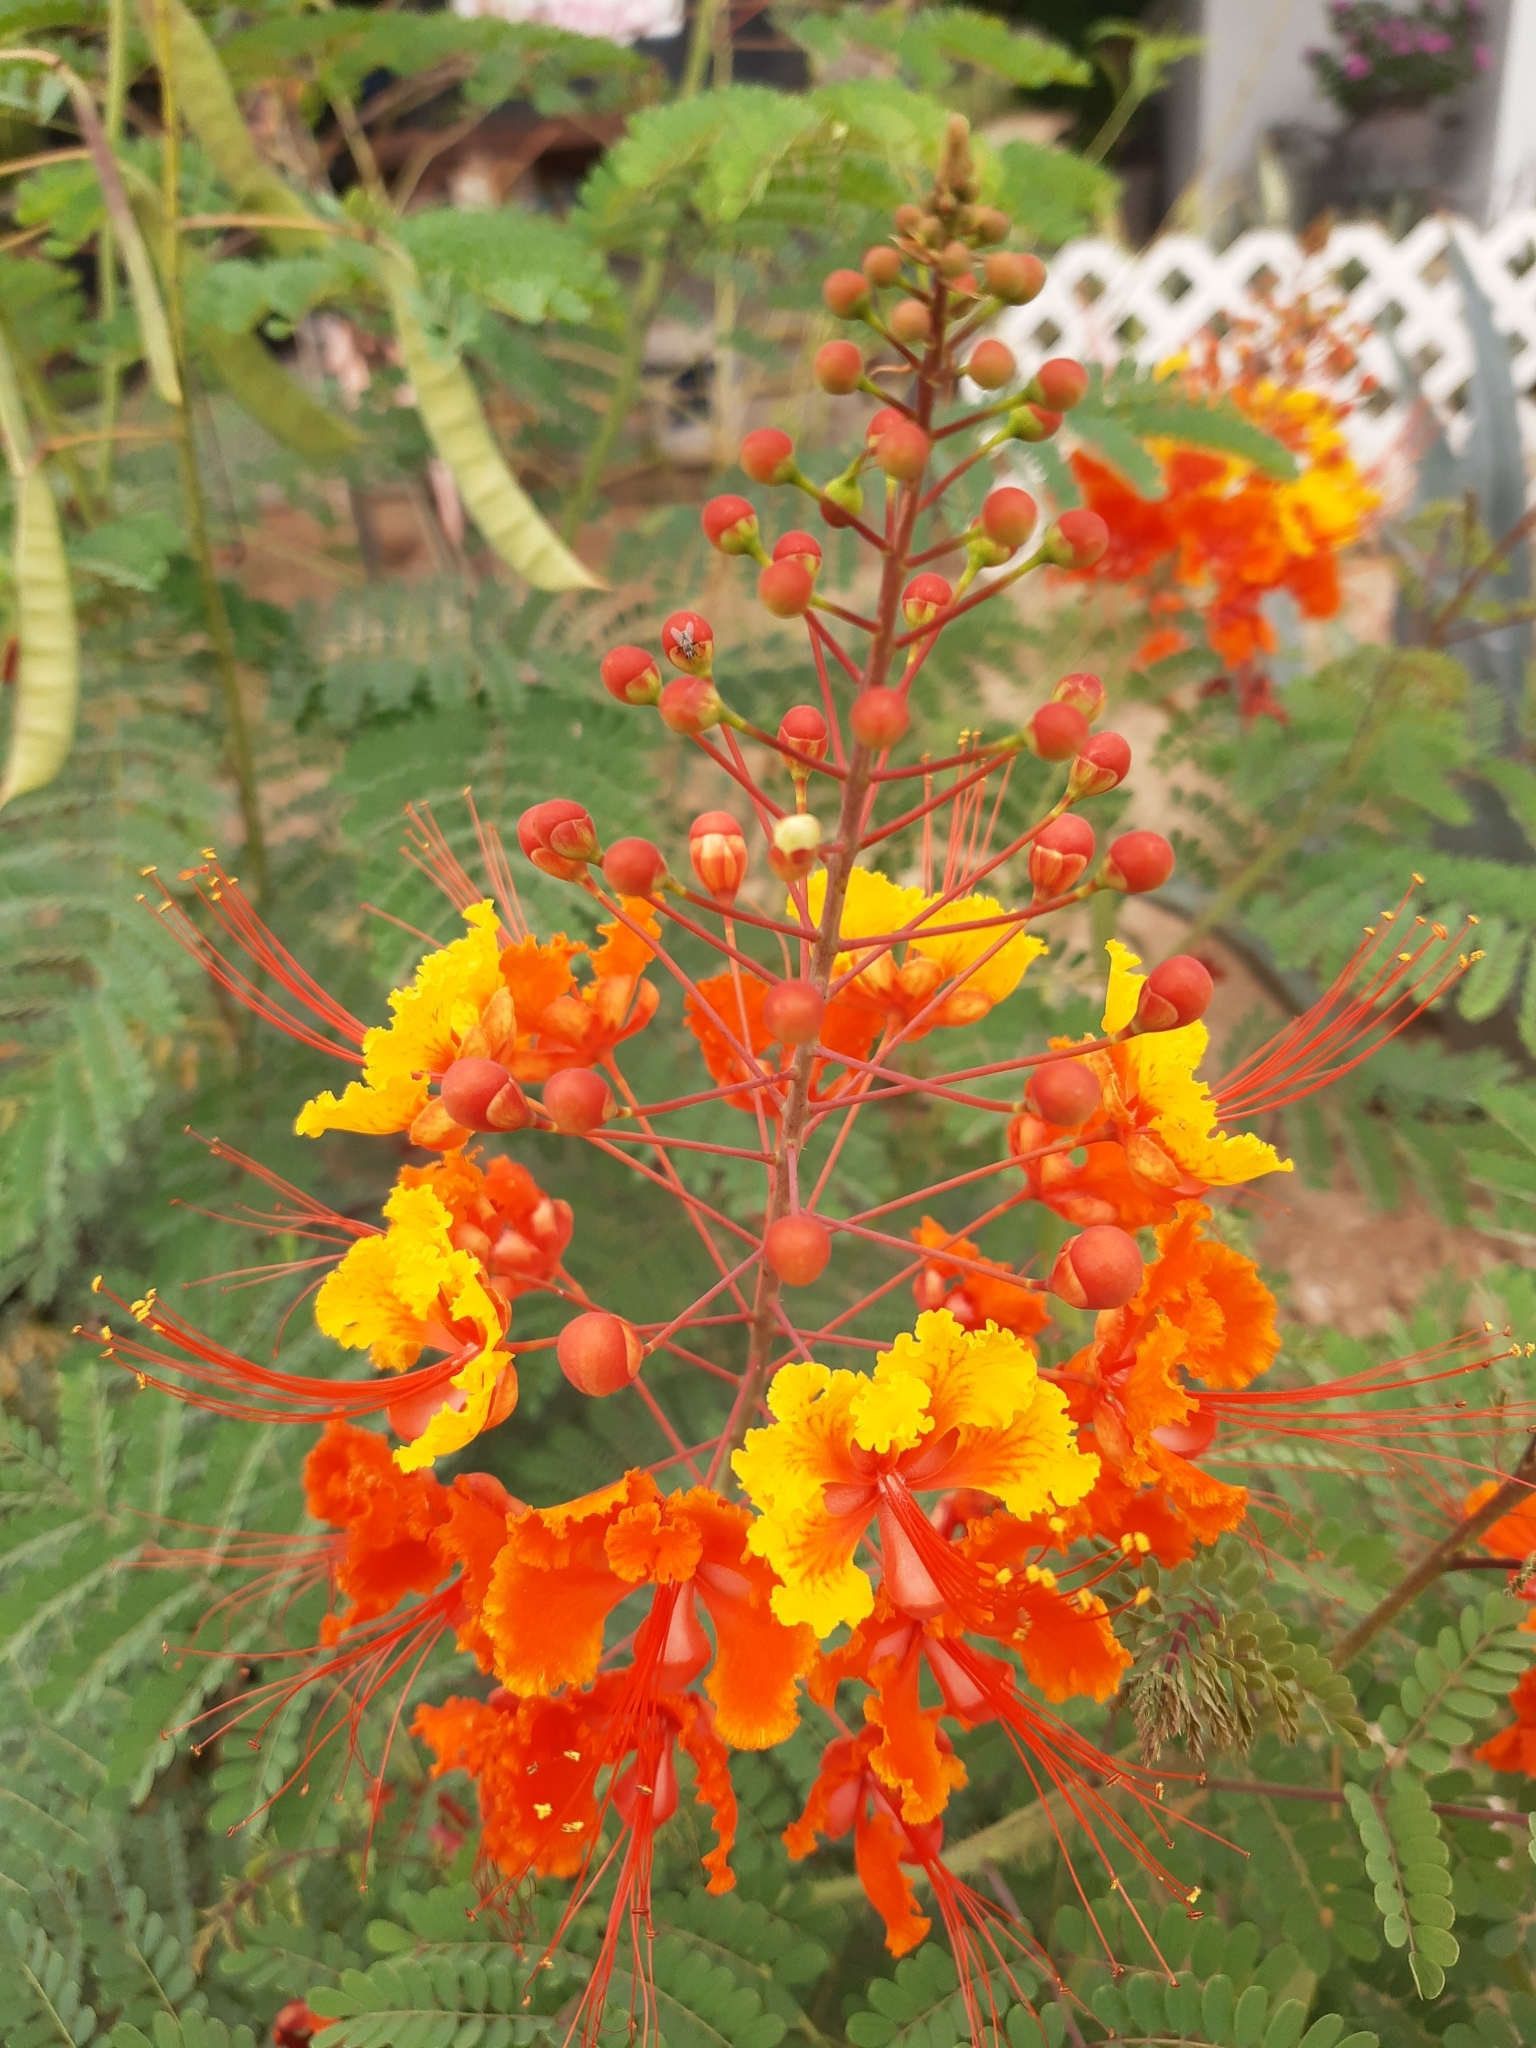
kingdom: Plantae
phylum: Tracheophyta
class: Magnoliopsida
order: Fabales
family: Fabaceae
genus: Caesalpinia
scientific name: Caesalpinia pulcherrima
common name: Pride-of-barbados
